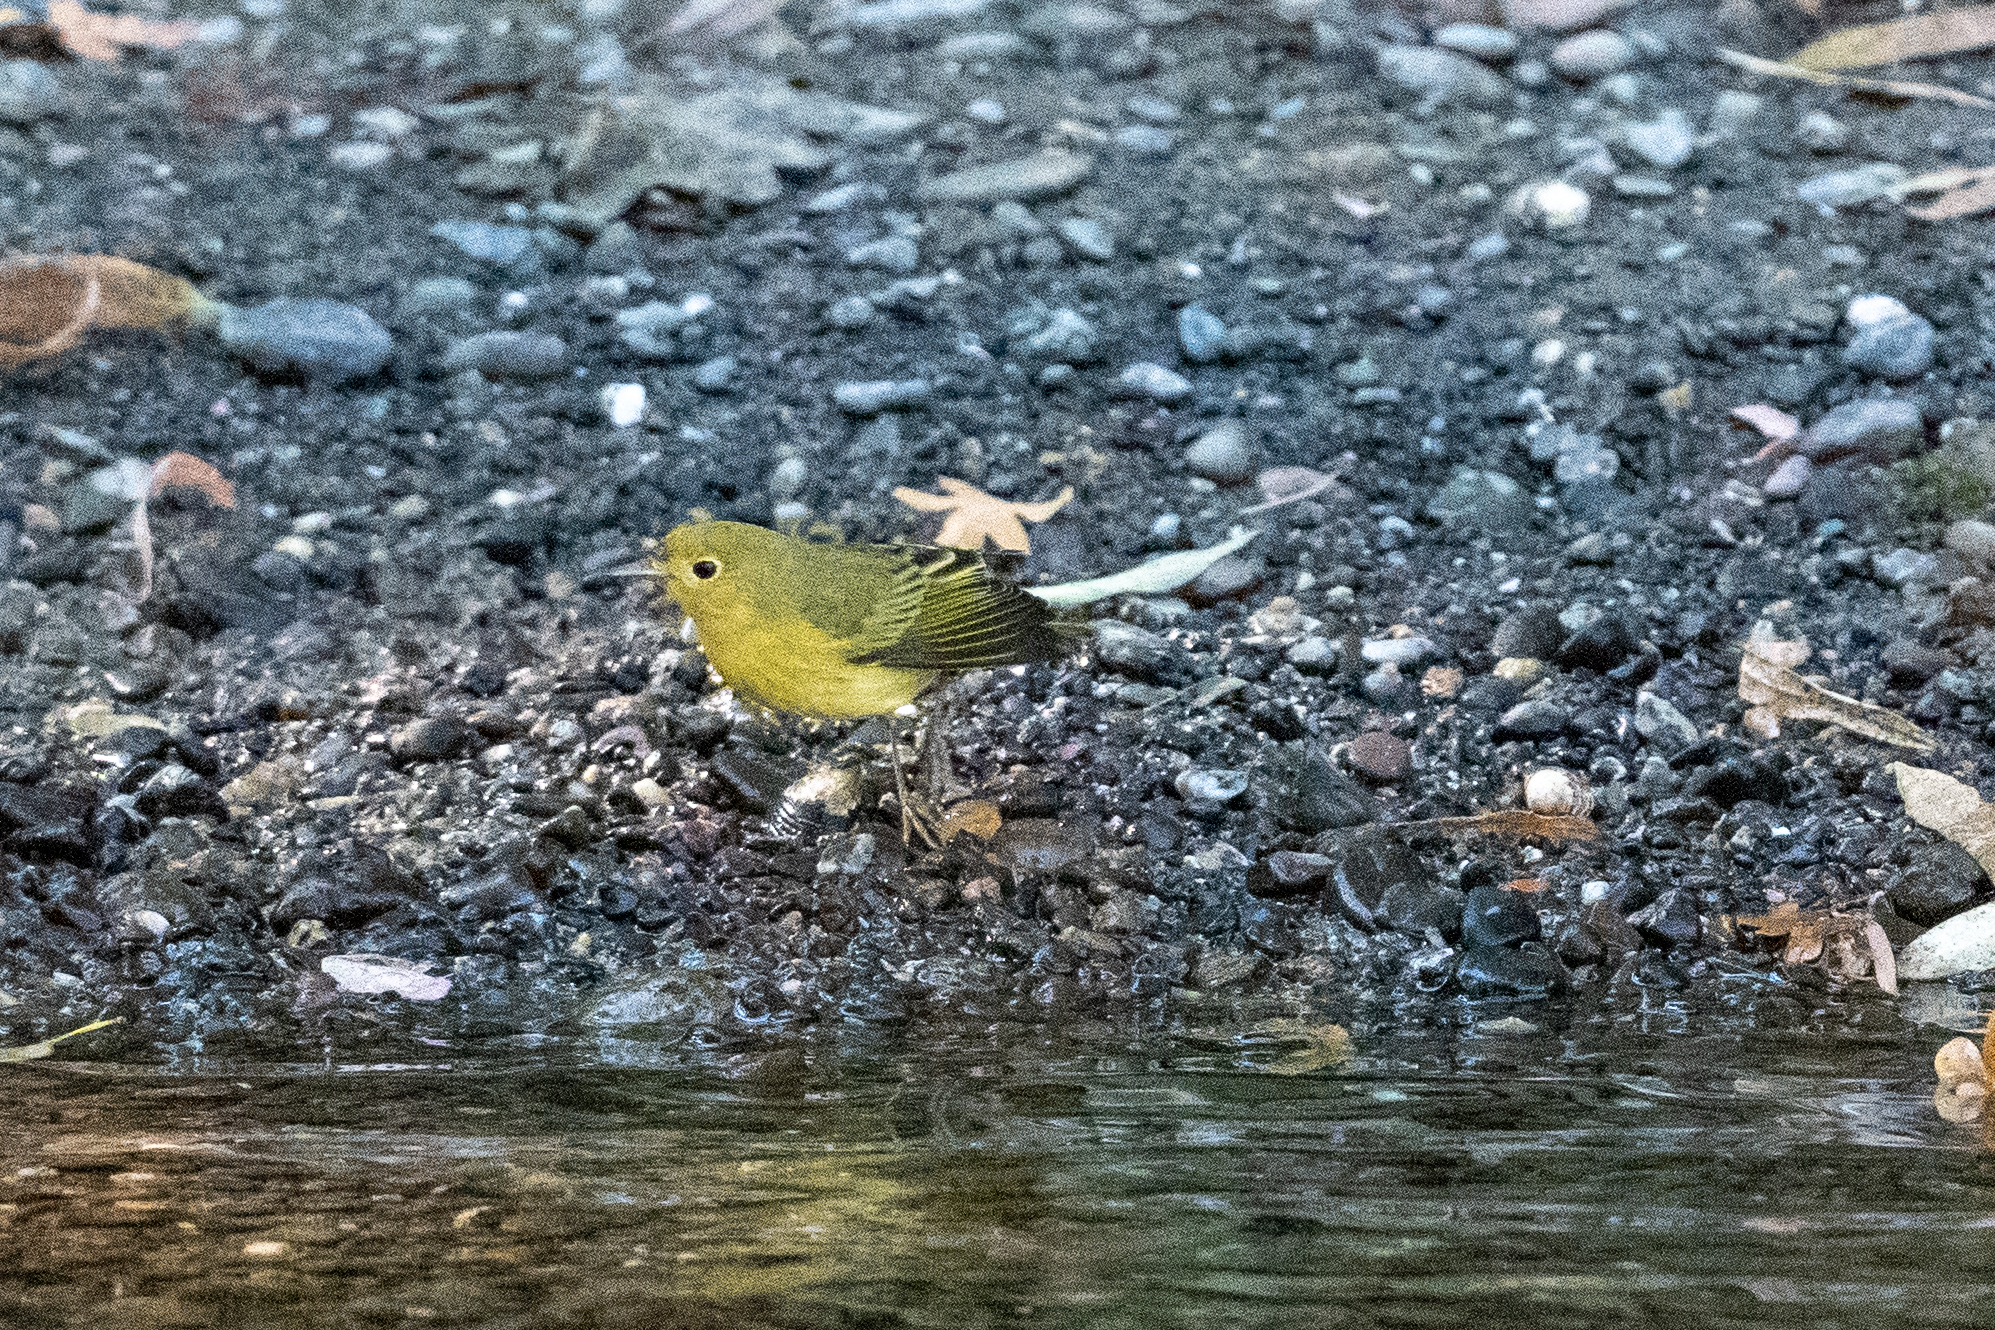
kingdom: Animalia
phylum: Chordata
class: Aves
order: Passeriformes
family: Parulidae
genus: Setophaga
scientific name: Setophaga petechia
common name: Yellow warbler
